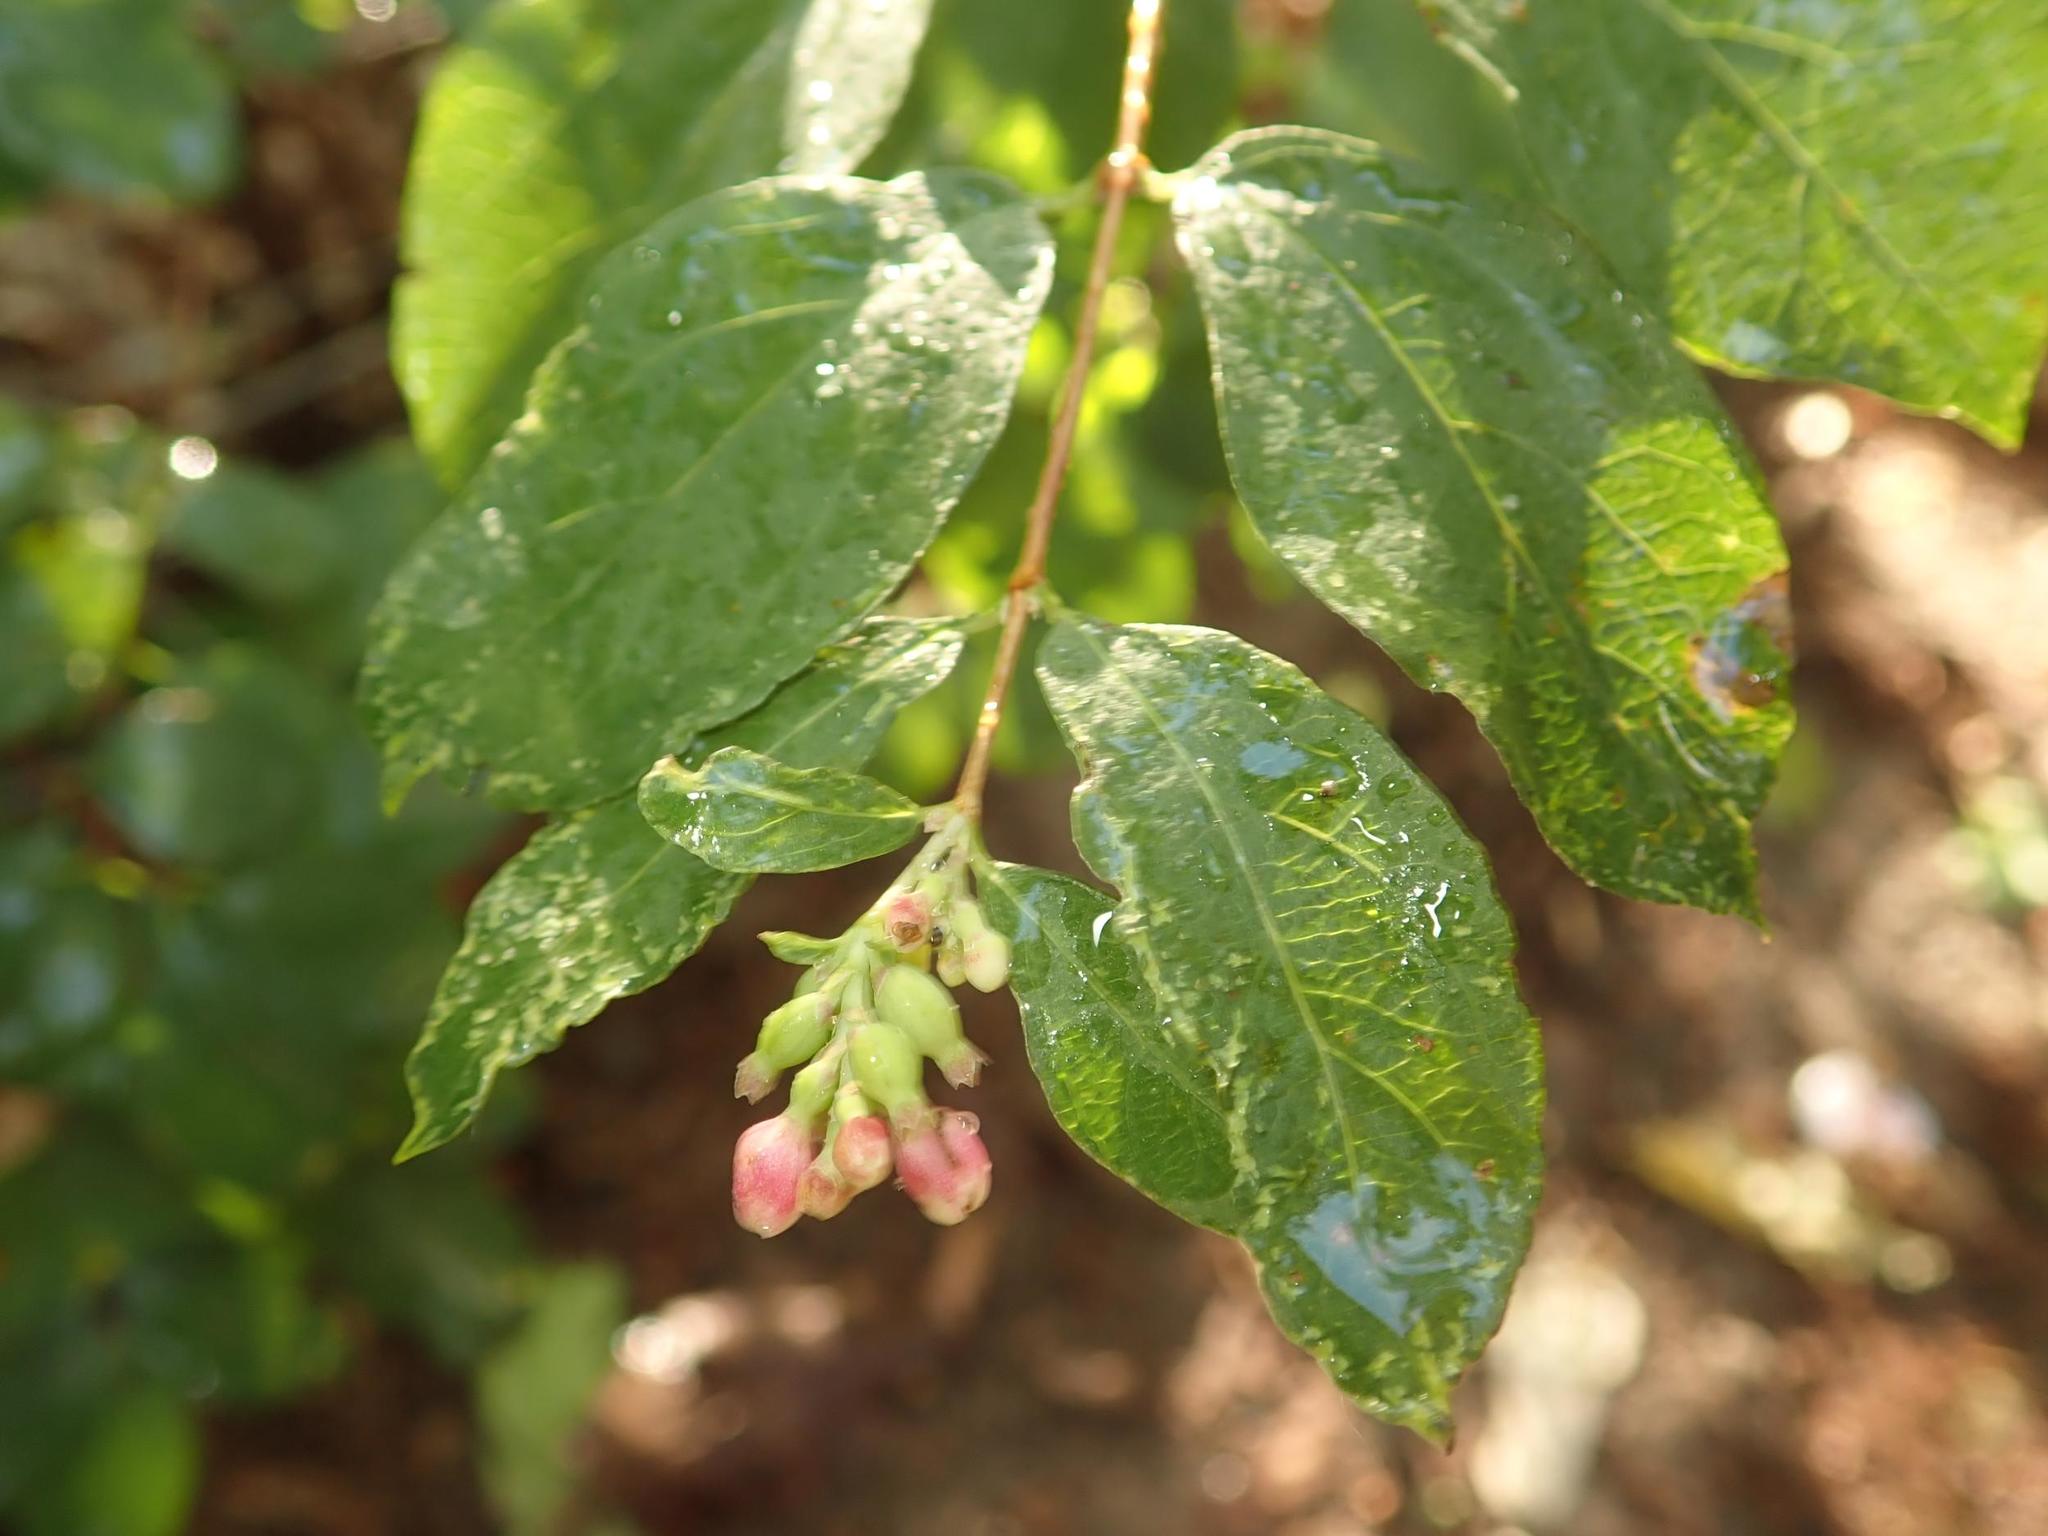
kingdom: Plantae
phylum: Tracheophyta
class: Magnoliopsida
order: Dipsacales
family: Caprifoliaceae
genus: Symphoricarpos
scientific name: Symphoricarpos albus
